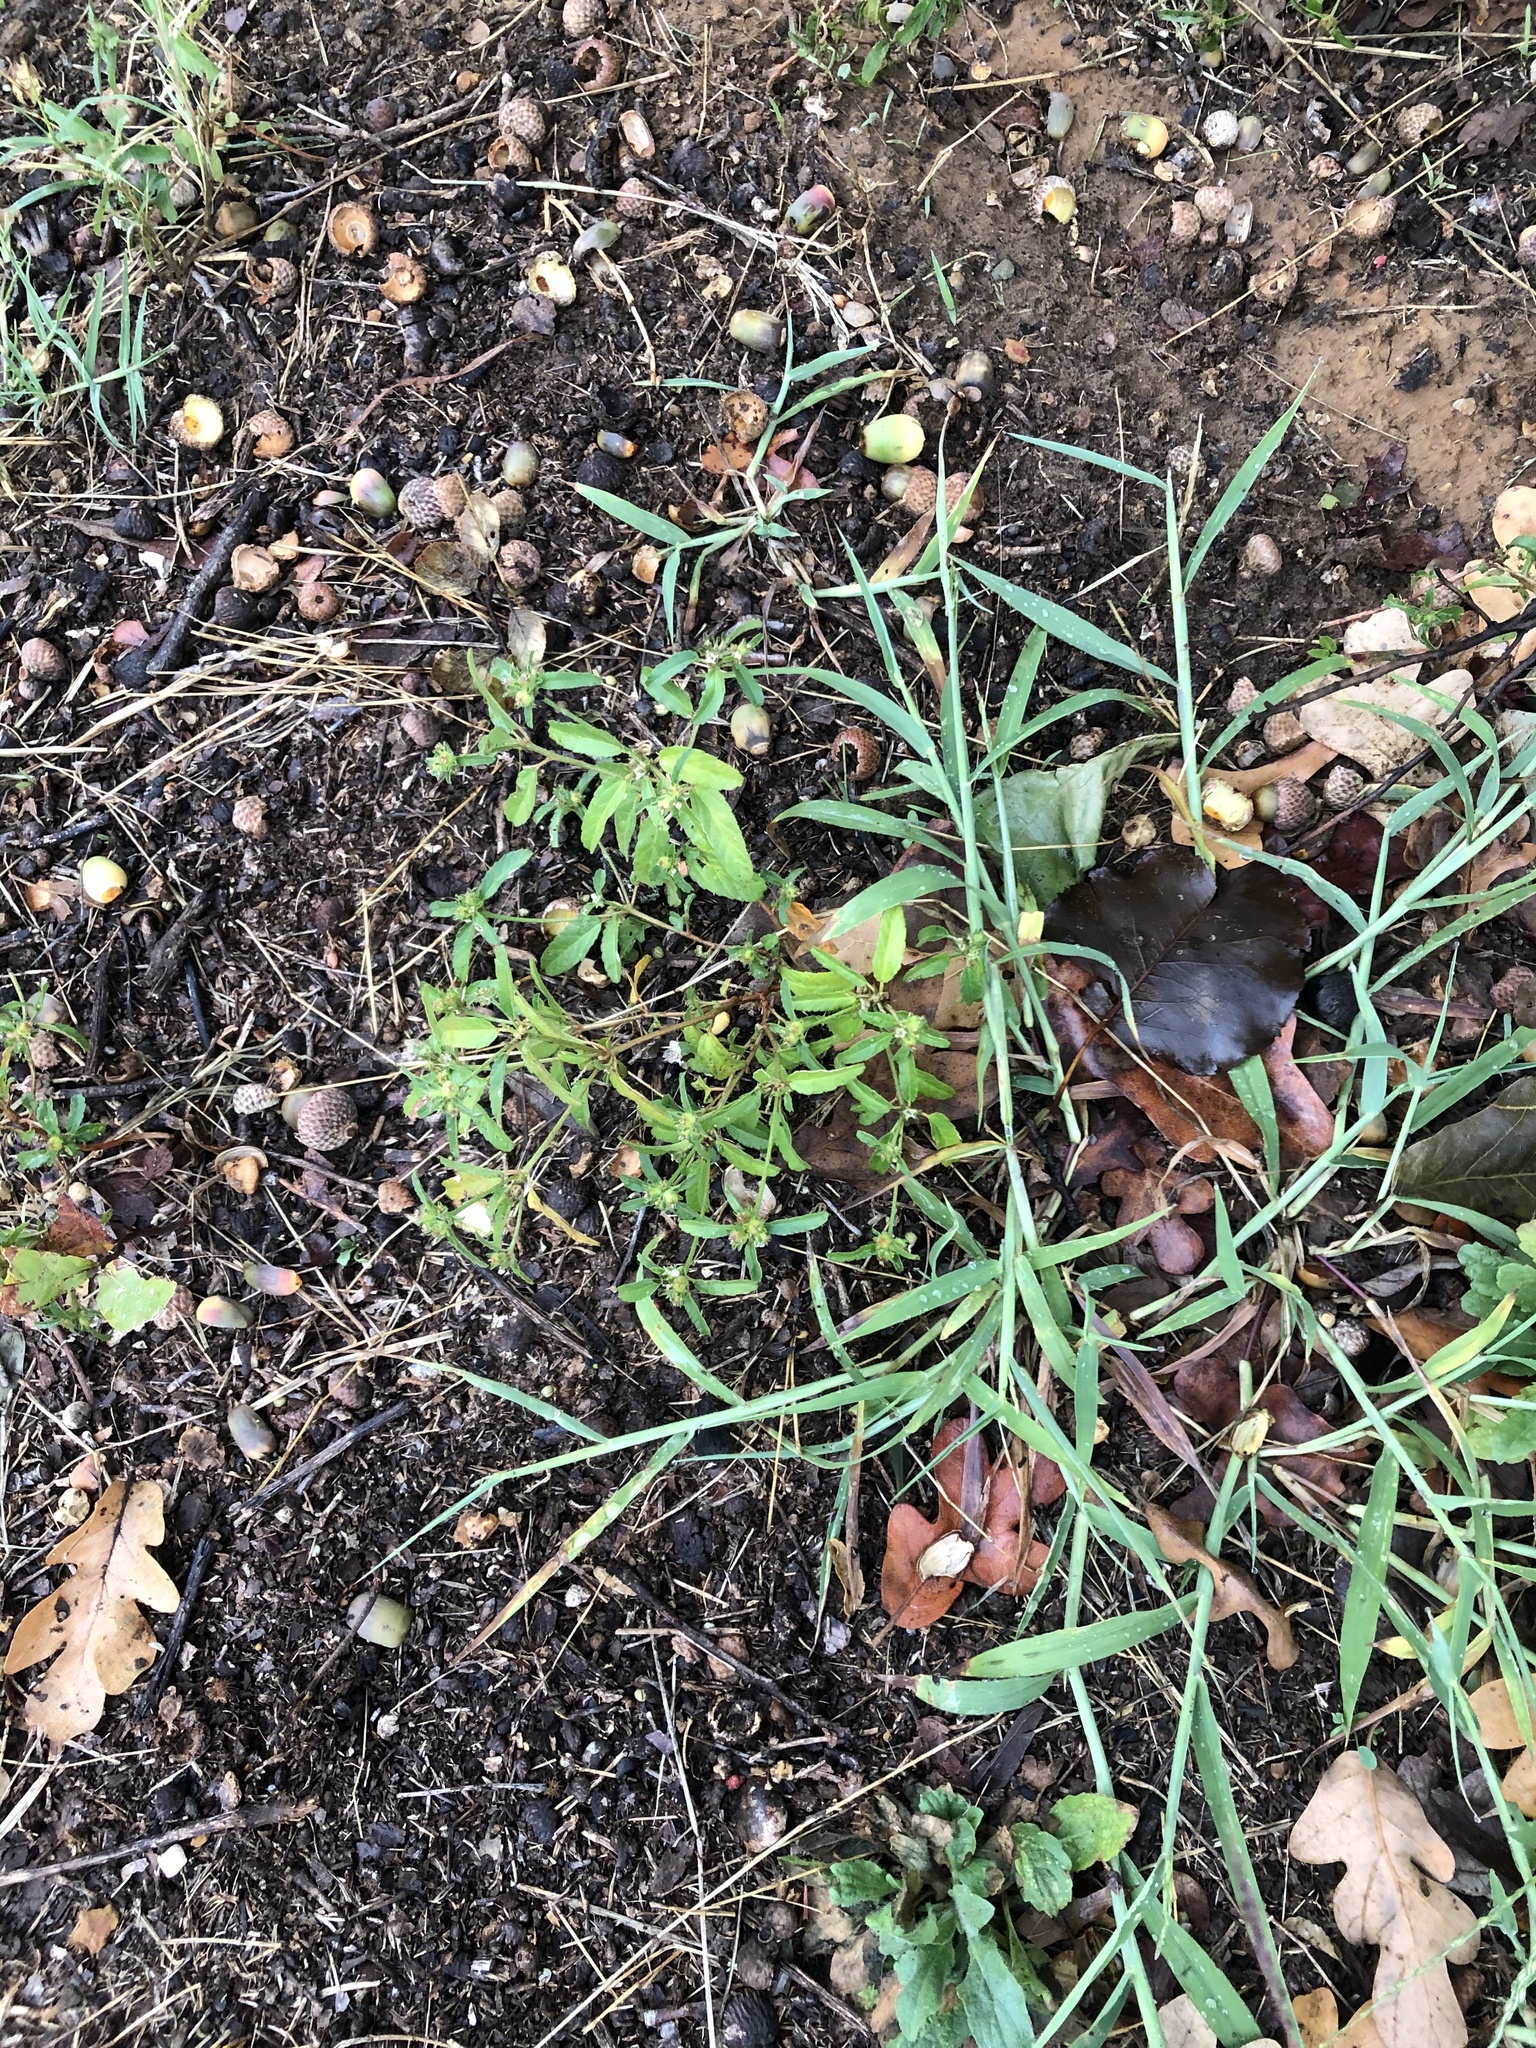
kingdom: Plantae
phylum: Tracheophyta
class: Magnoliopsida
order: Malpighiales
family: Euphorbiaceae
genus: Croton
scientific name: Croton glandulosus
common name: Tropic croton
